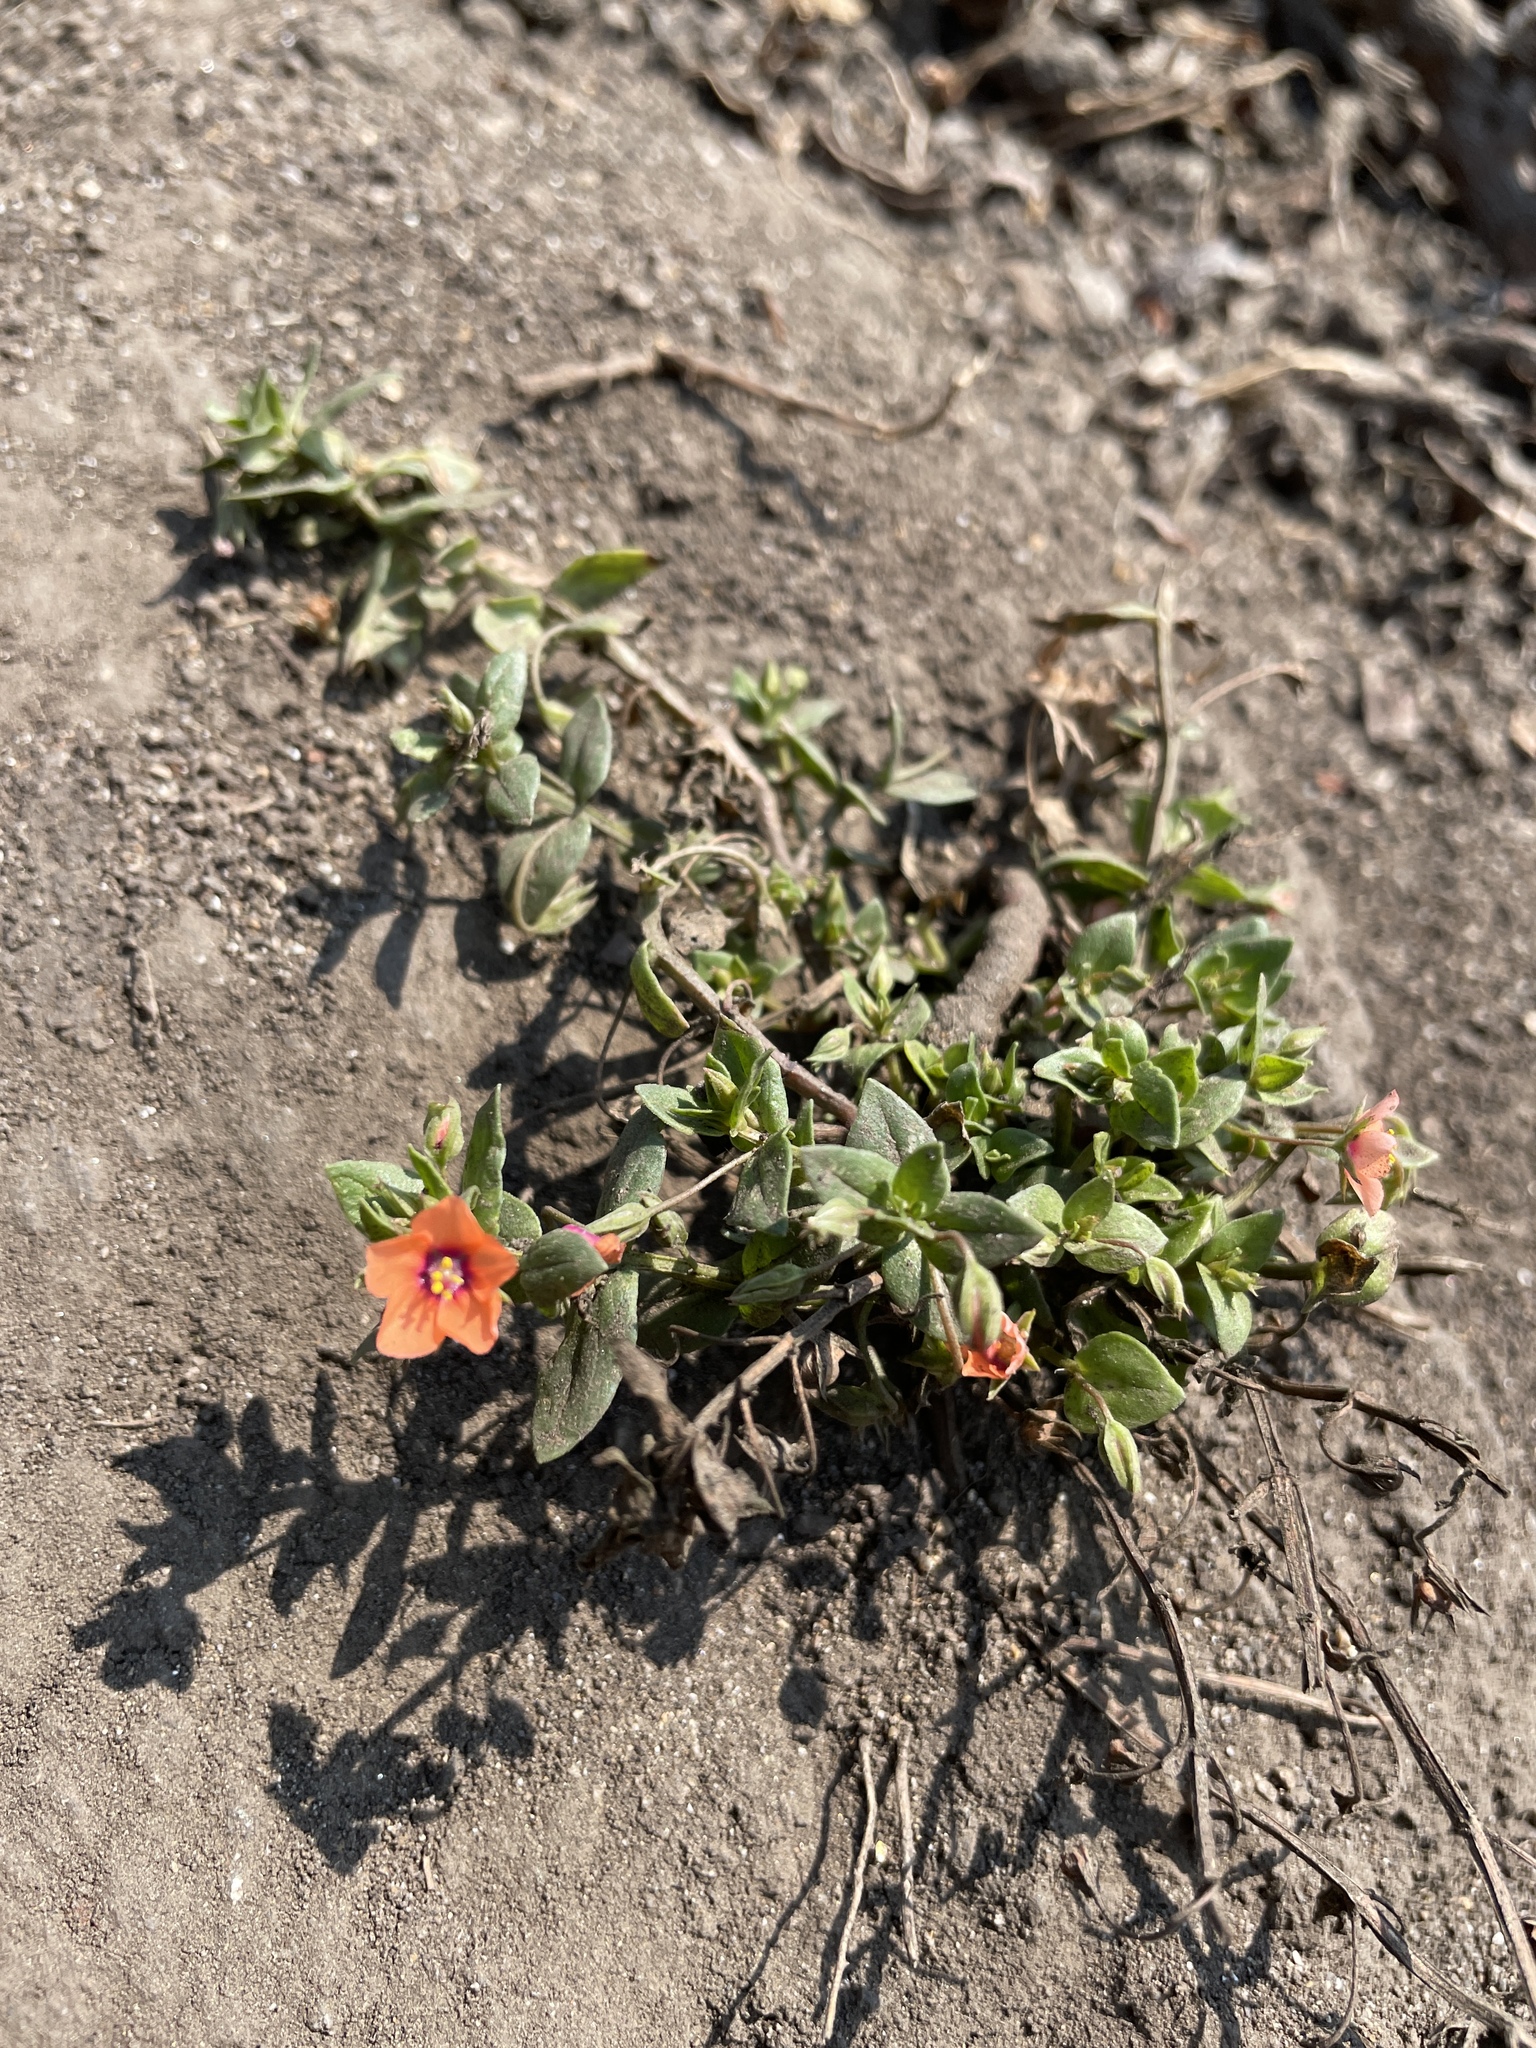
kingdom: Plantae
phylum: Tracheophyta
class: Magnoliopsida
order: Ericales
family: Primulaceae
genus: Lysimachia
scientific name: Lysimachia arvensis
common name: Scarlet pimpernel
